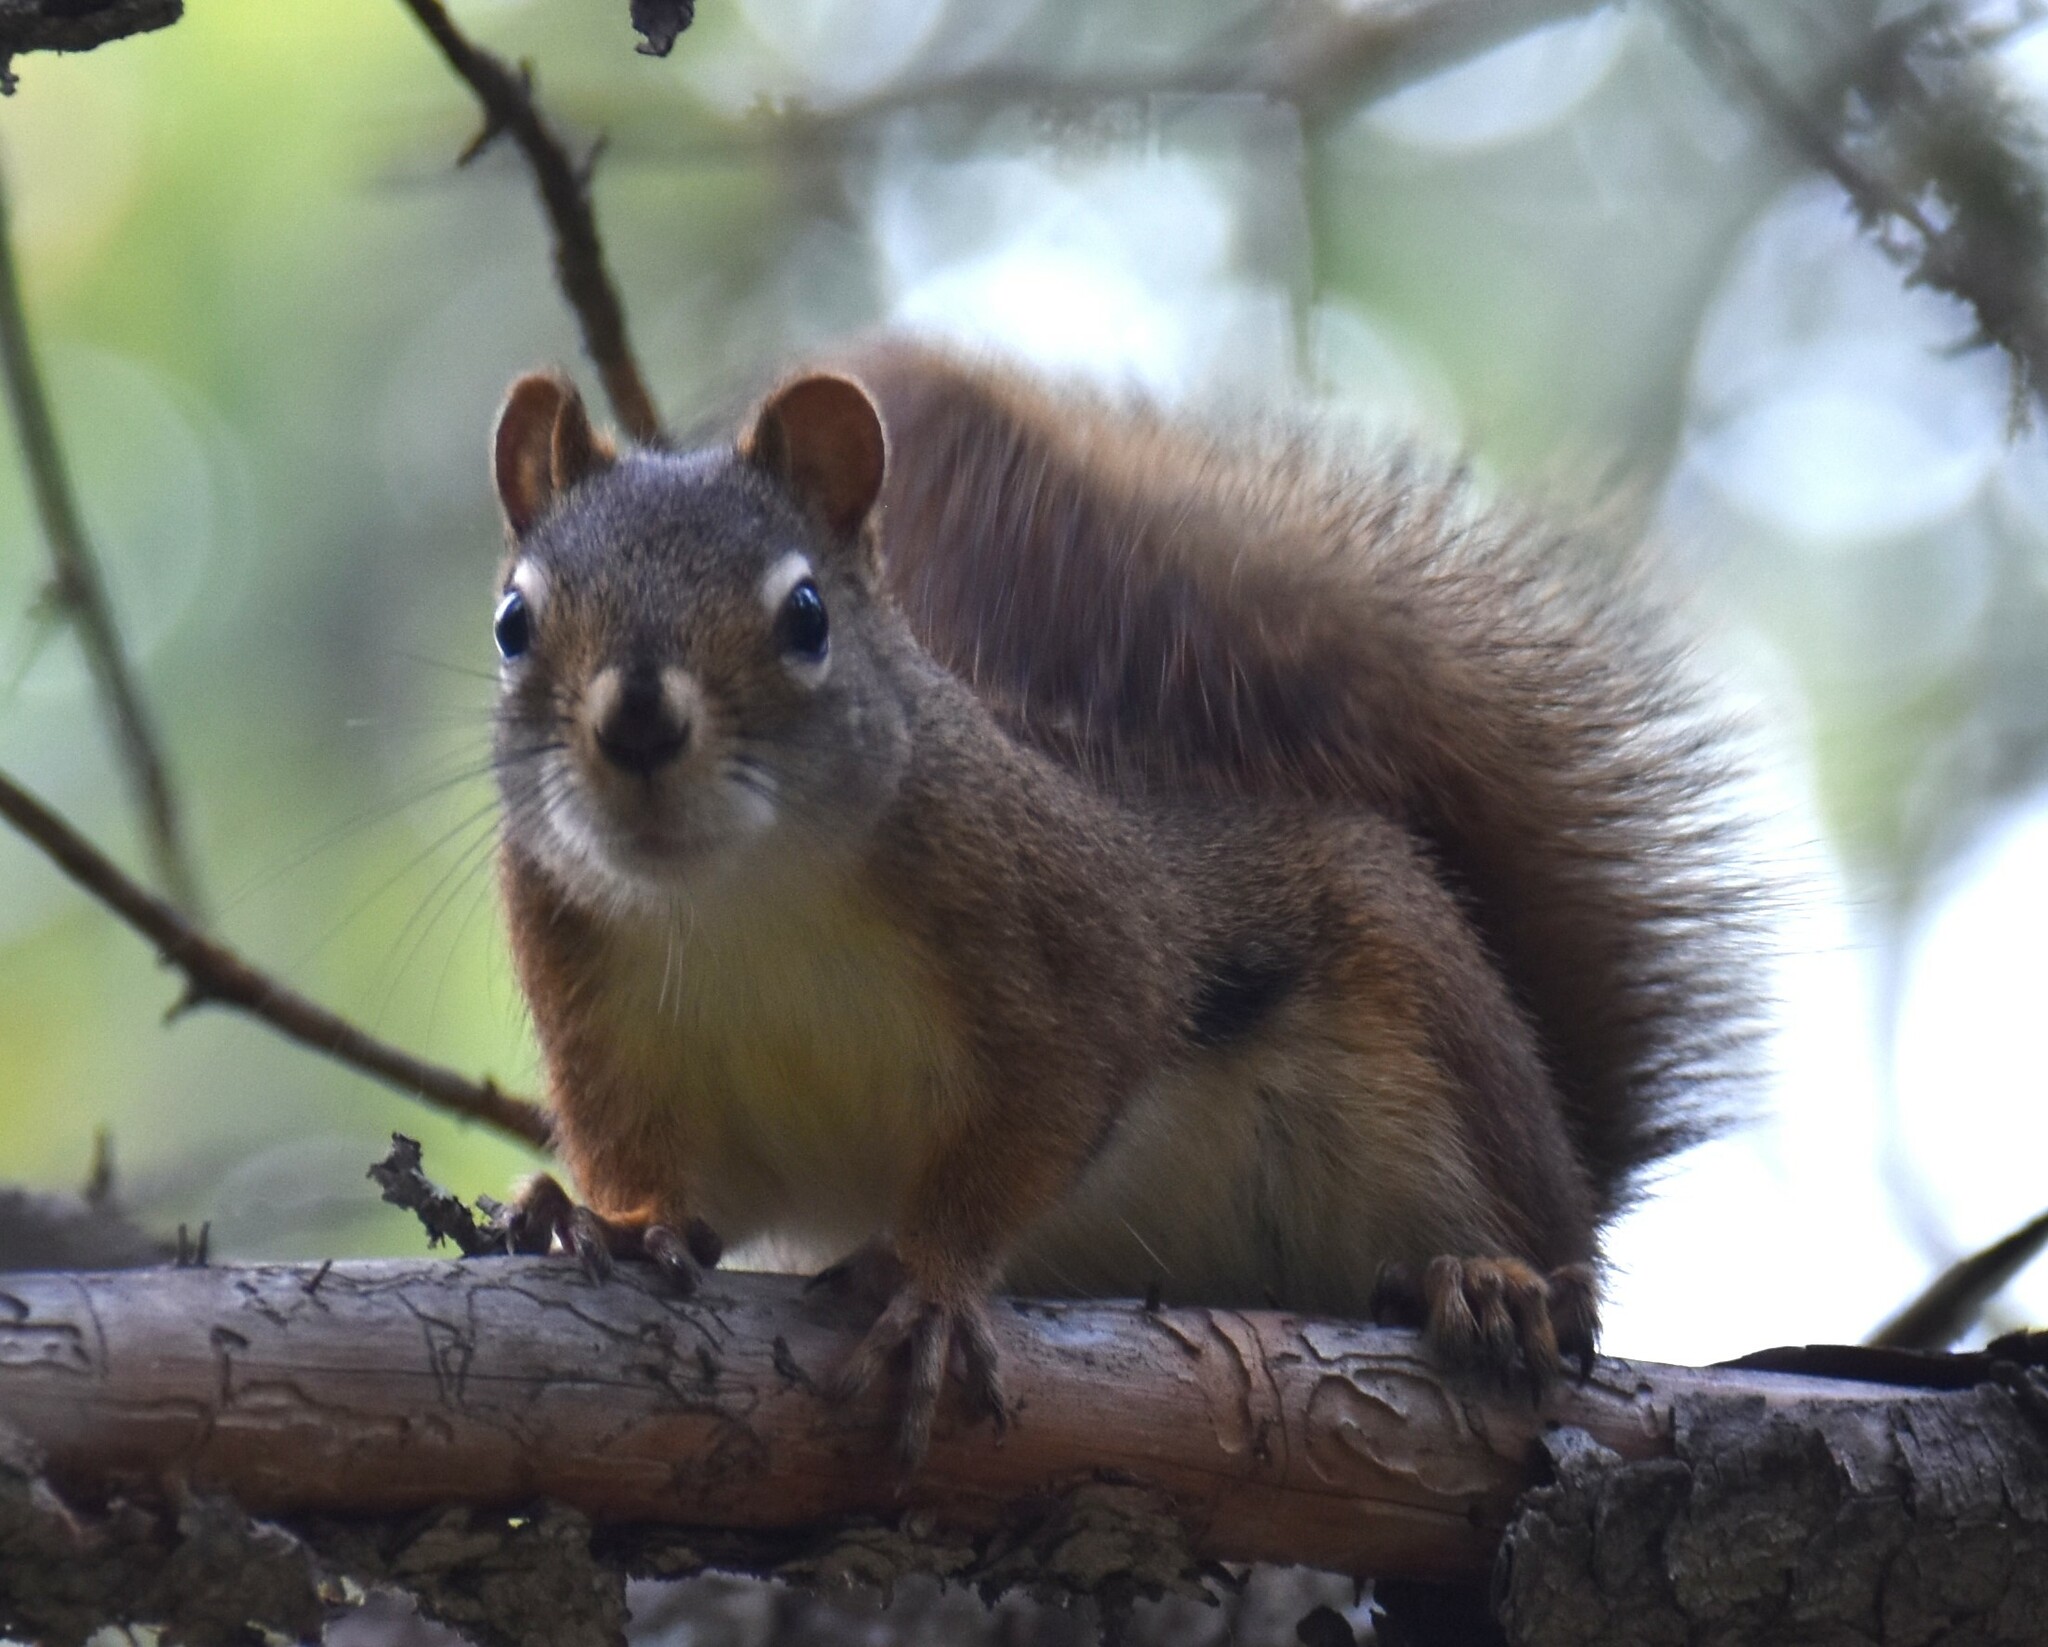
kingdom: Animalia
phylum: Chordata
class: Mammalia
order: Rodentia
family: Sciuridae
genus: Tamiasciurus
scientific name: Tamiasciurus hudsonicus
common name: Red squirrel
